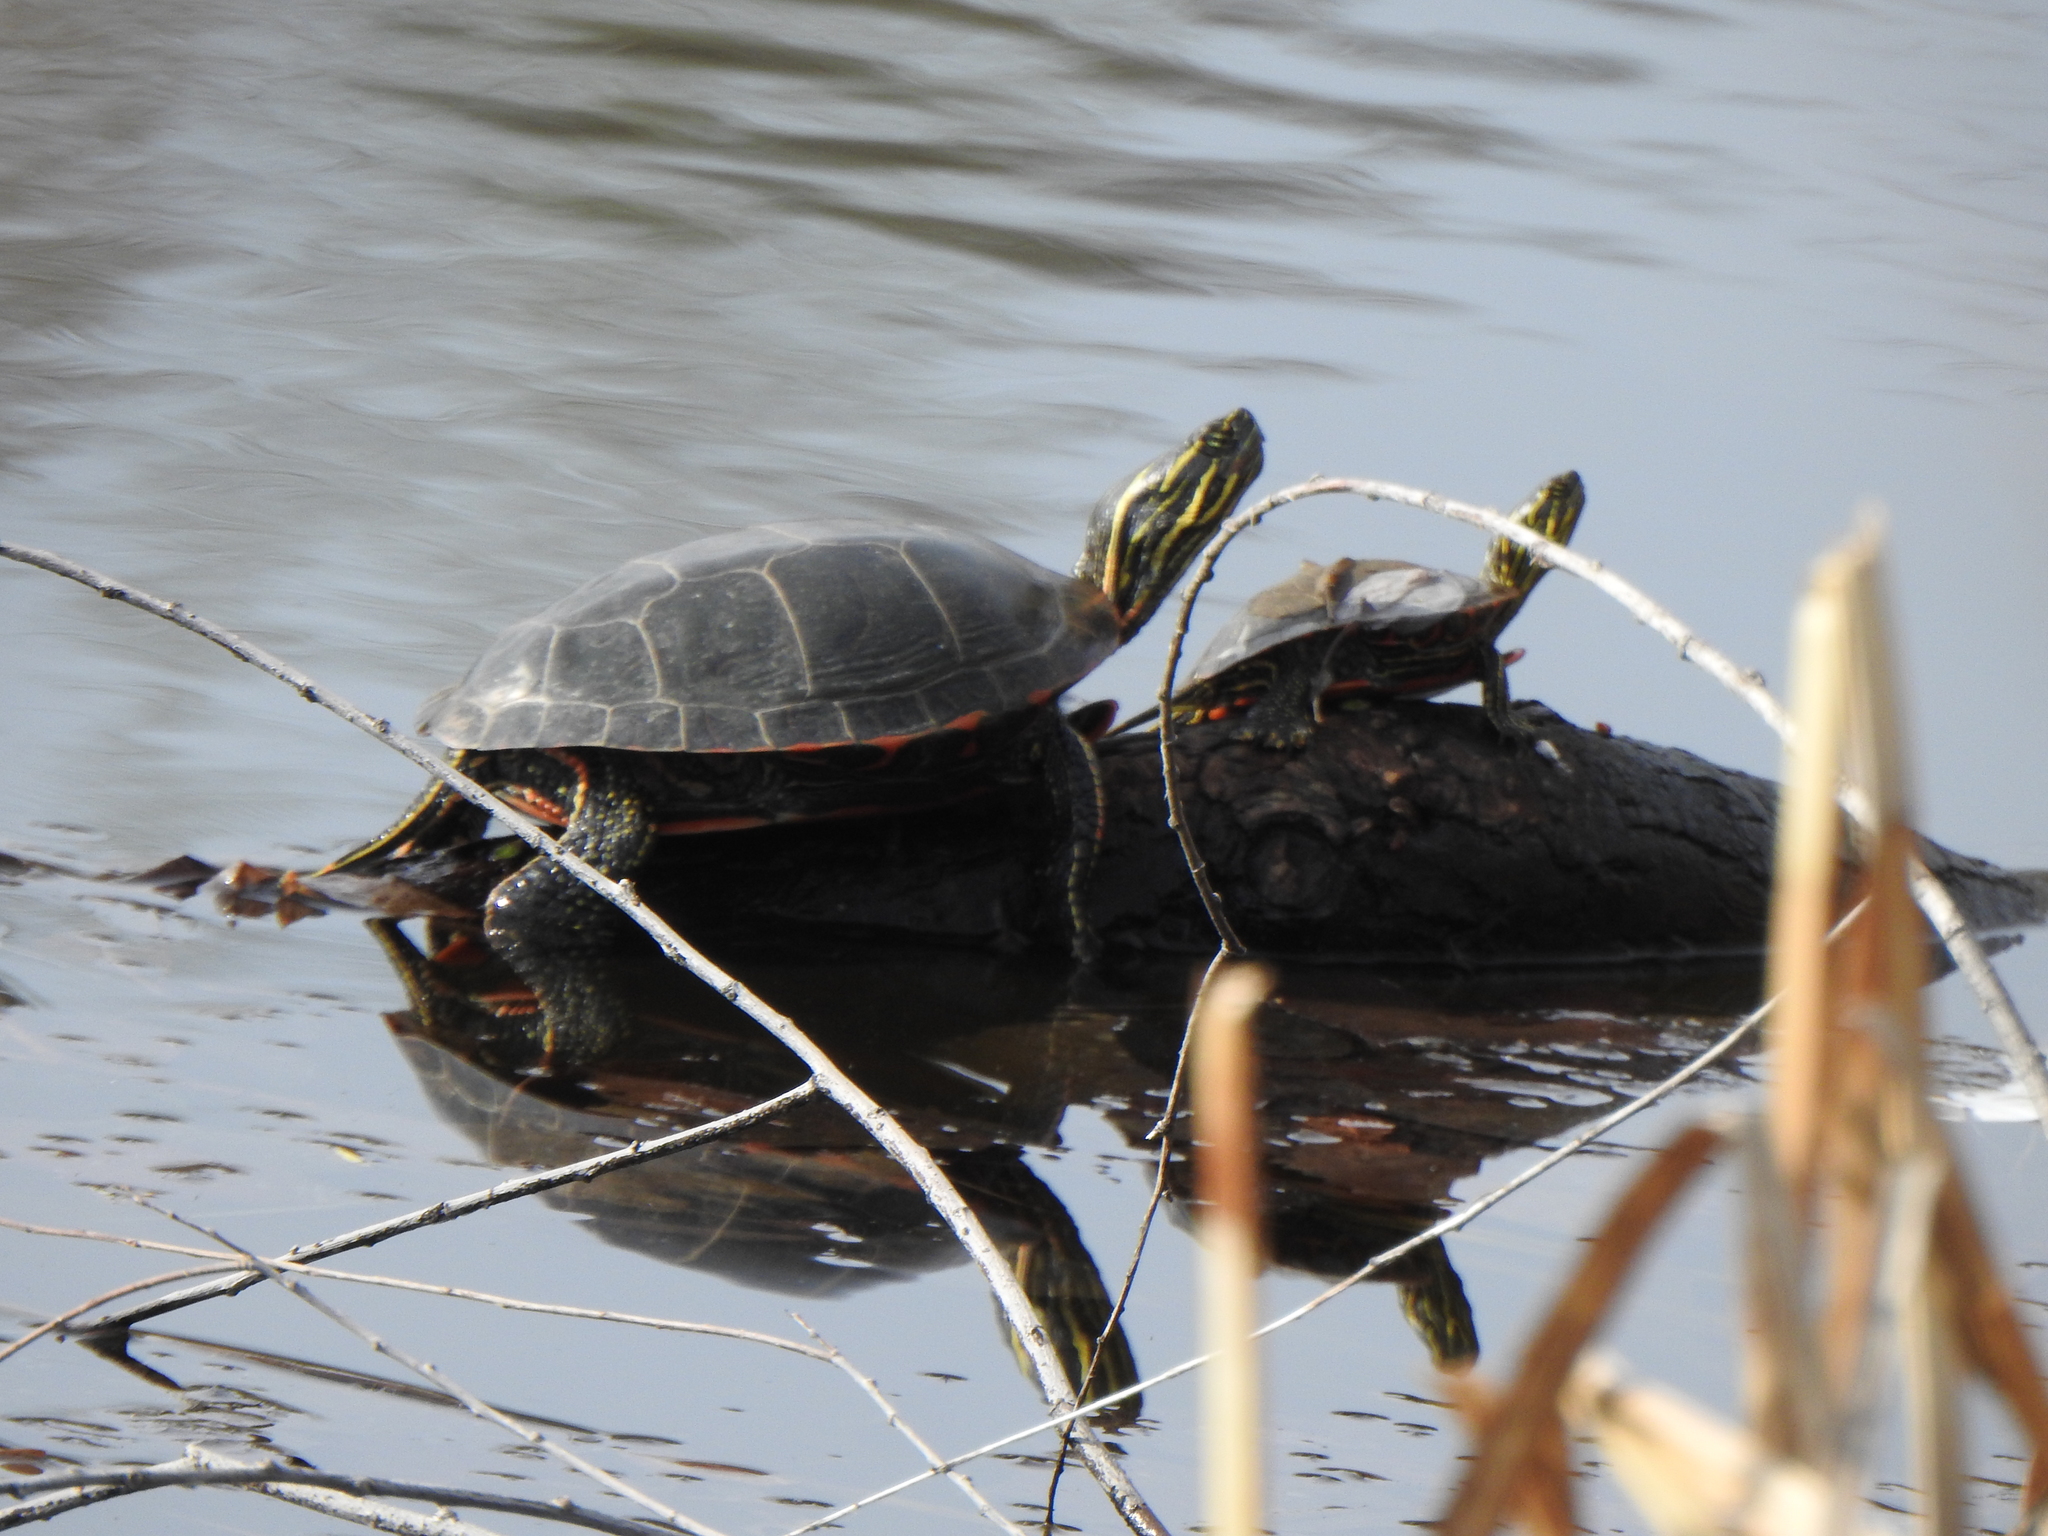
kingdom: Animalia
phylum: Chordata
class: Testudines
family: Emydidae
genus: Chrysemys
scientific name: Chrysemys picta
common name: Painted turtle
